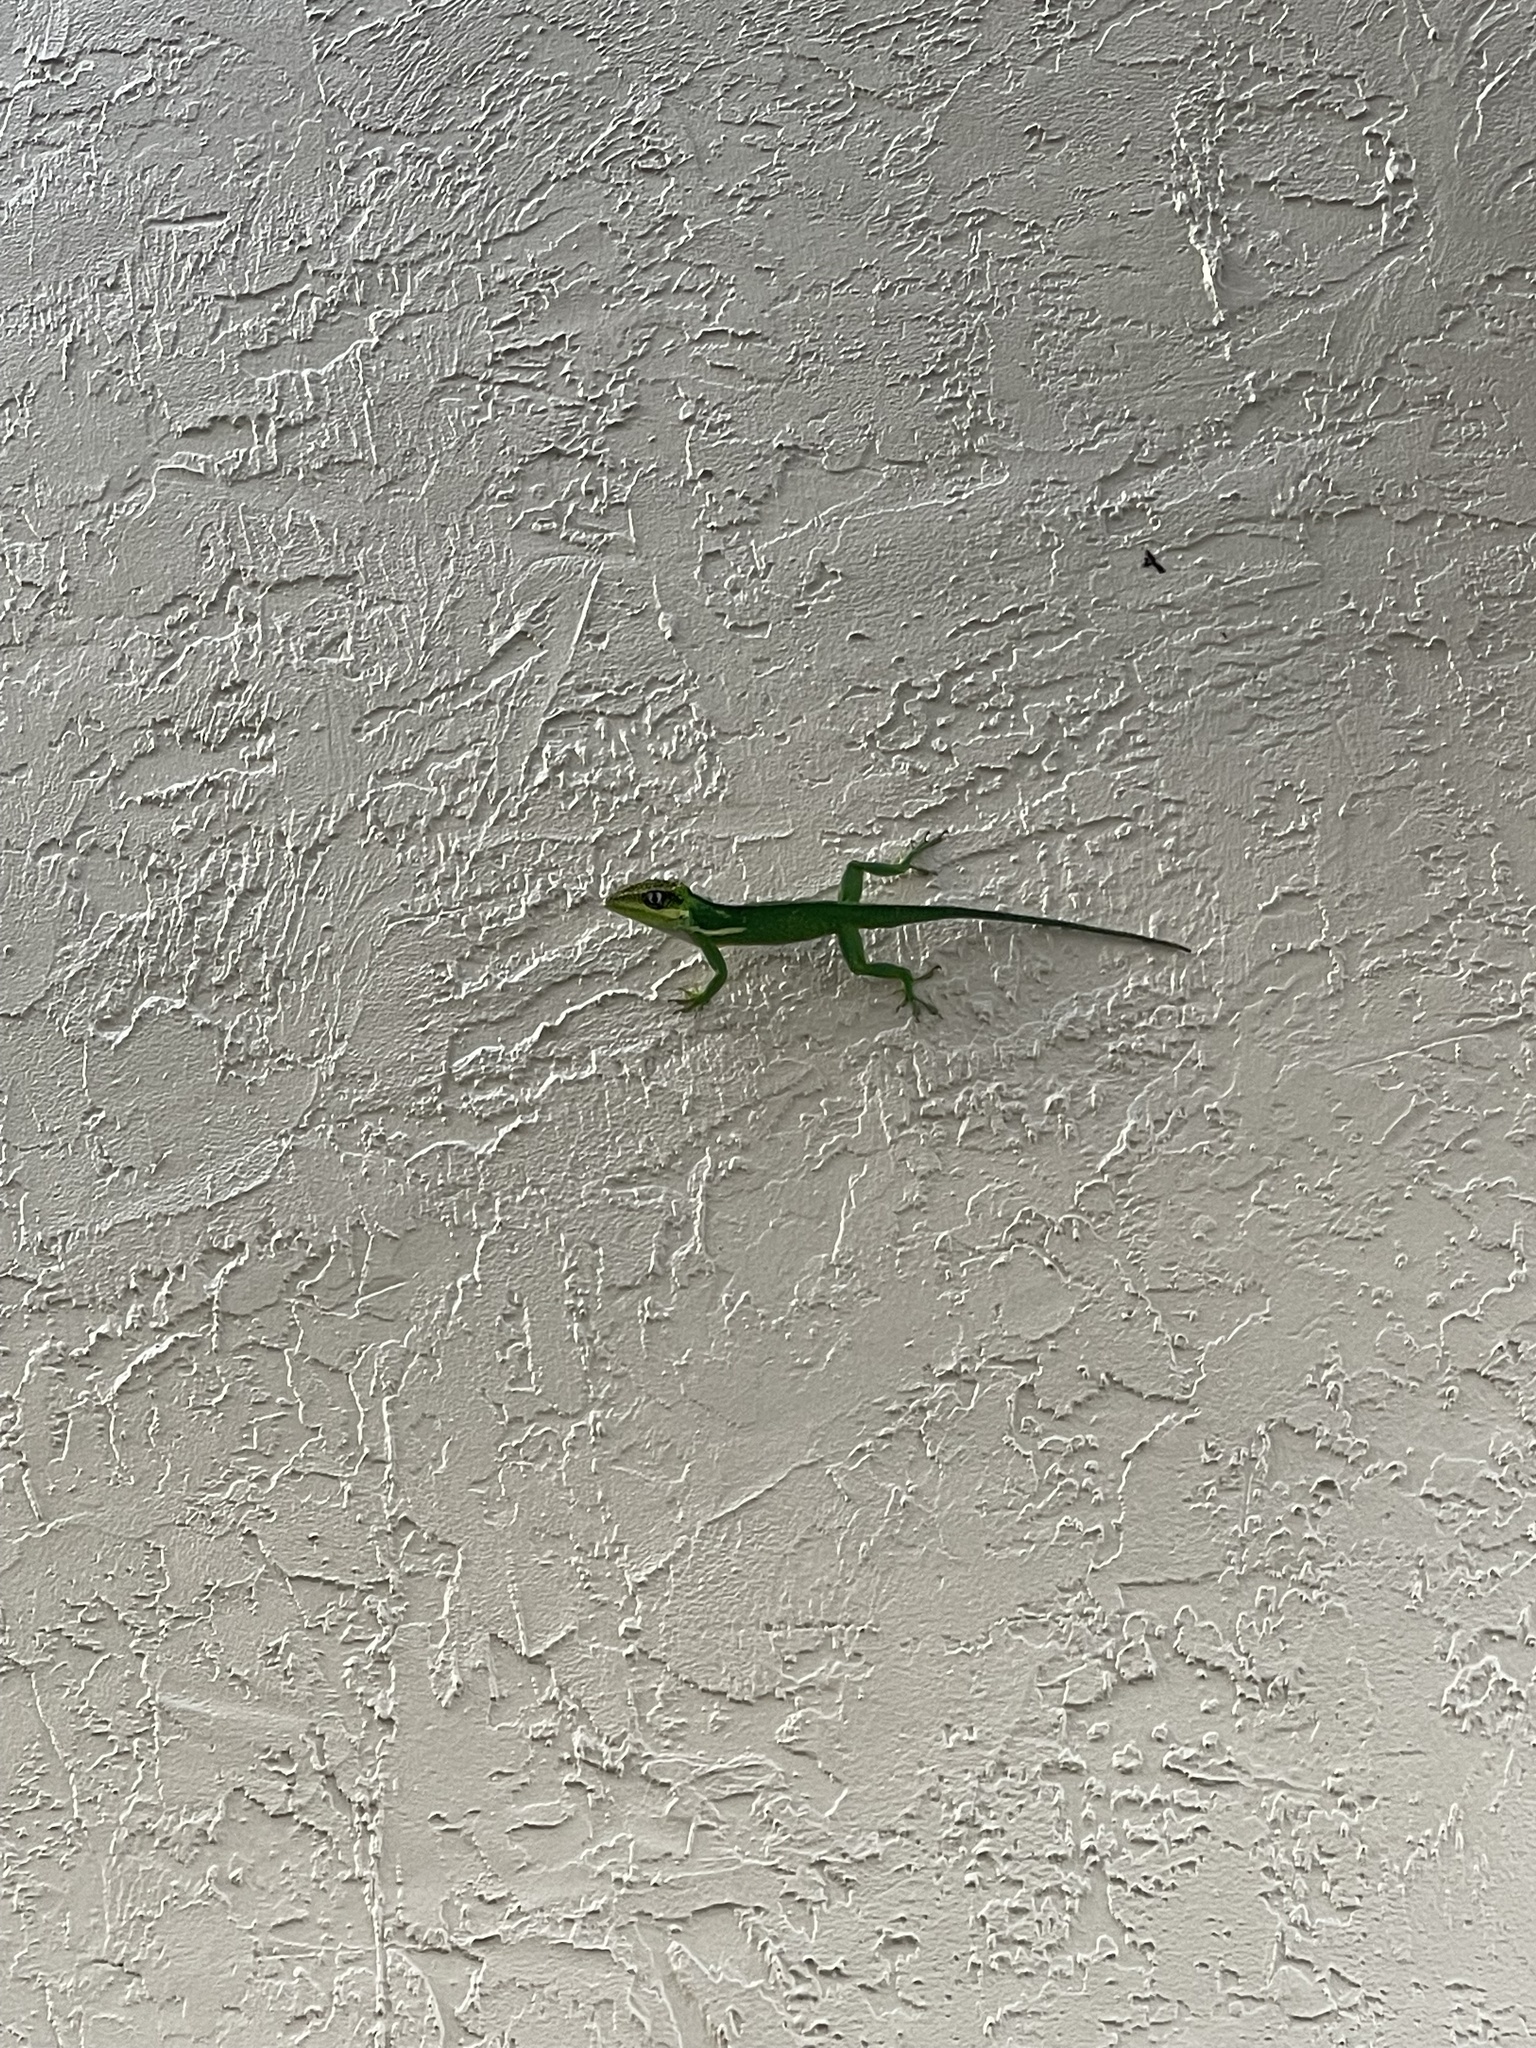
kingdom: Animalia
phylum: Chordata
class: Squamata
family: Dactyloidae
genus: Anolis
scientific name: Anolis equestris
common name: Knight anole
